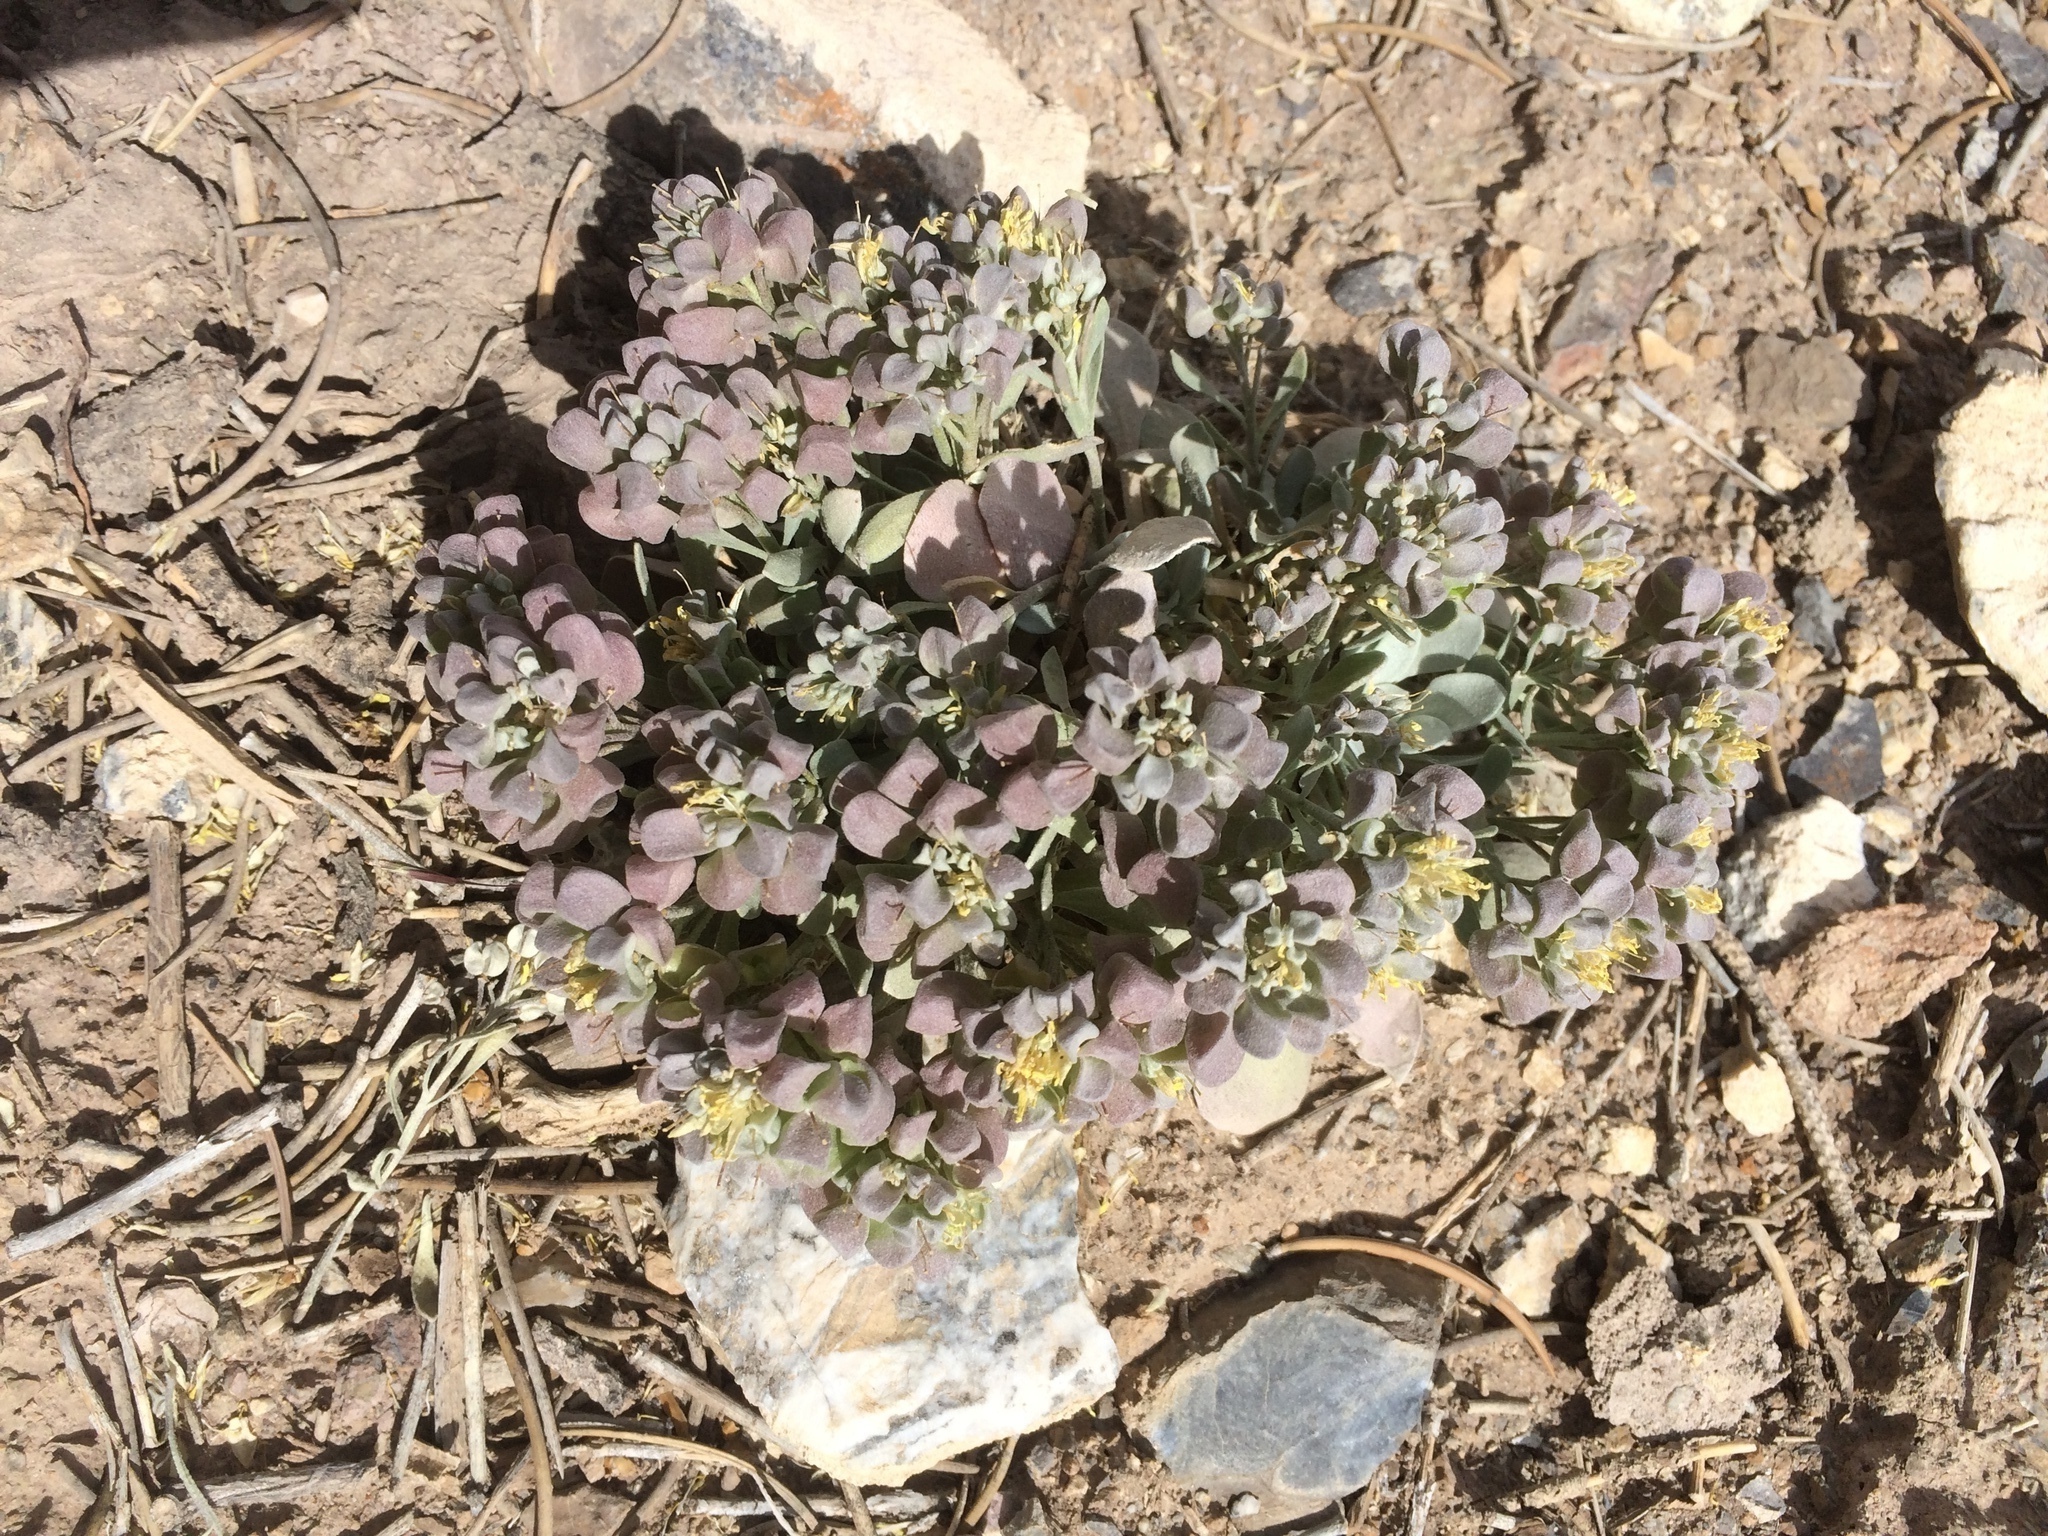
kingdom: Plantae
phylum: Tracheophyta
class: Magnoliopsida
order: Brassicales
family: Brassicaceae
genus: Physaria
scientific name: Physaria chambersii
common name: Chamber's twinpod
